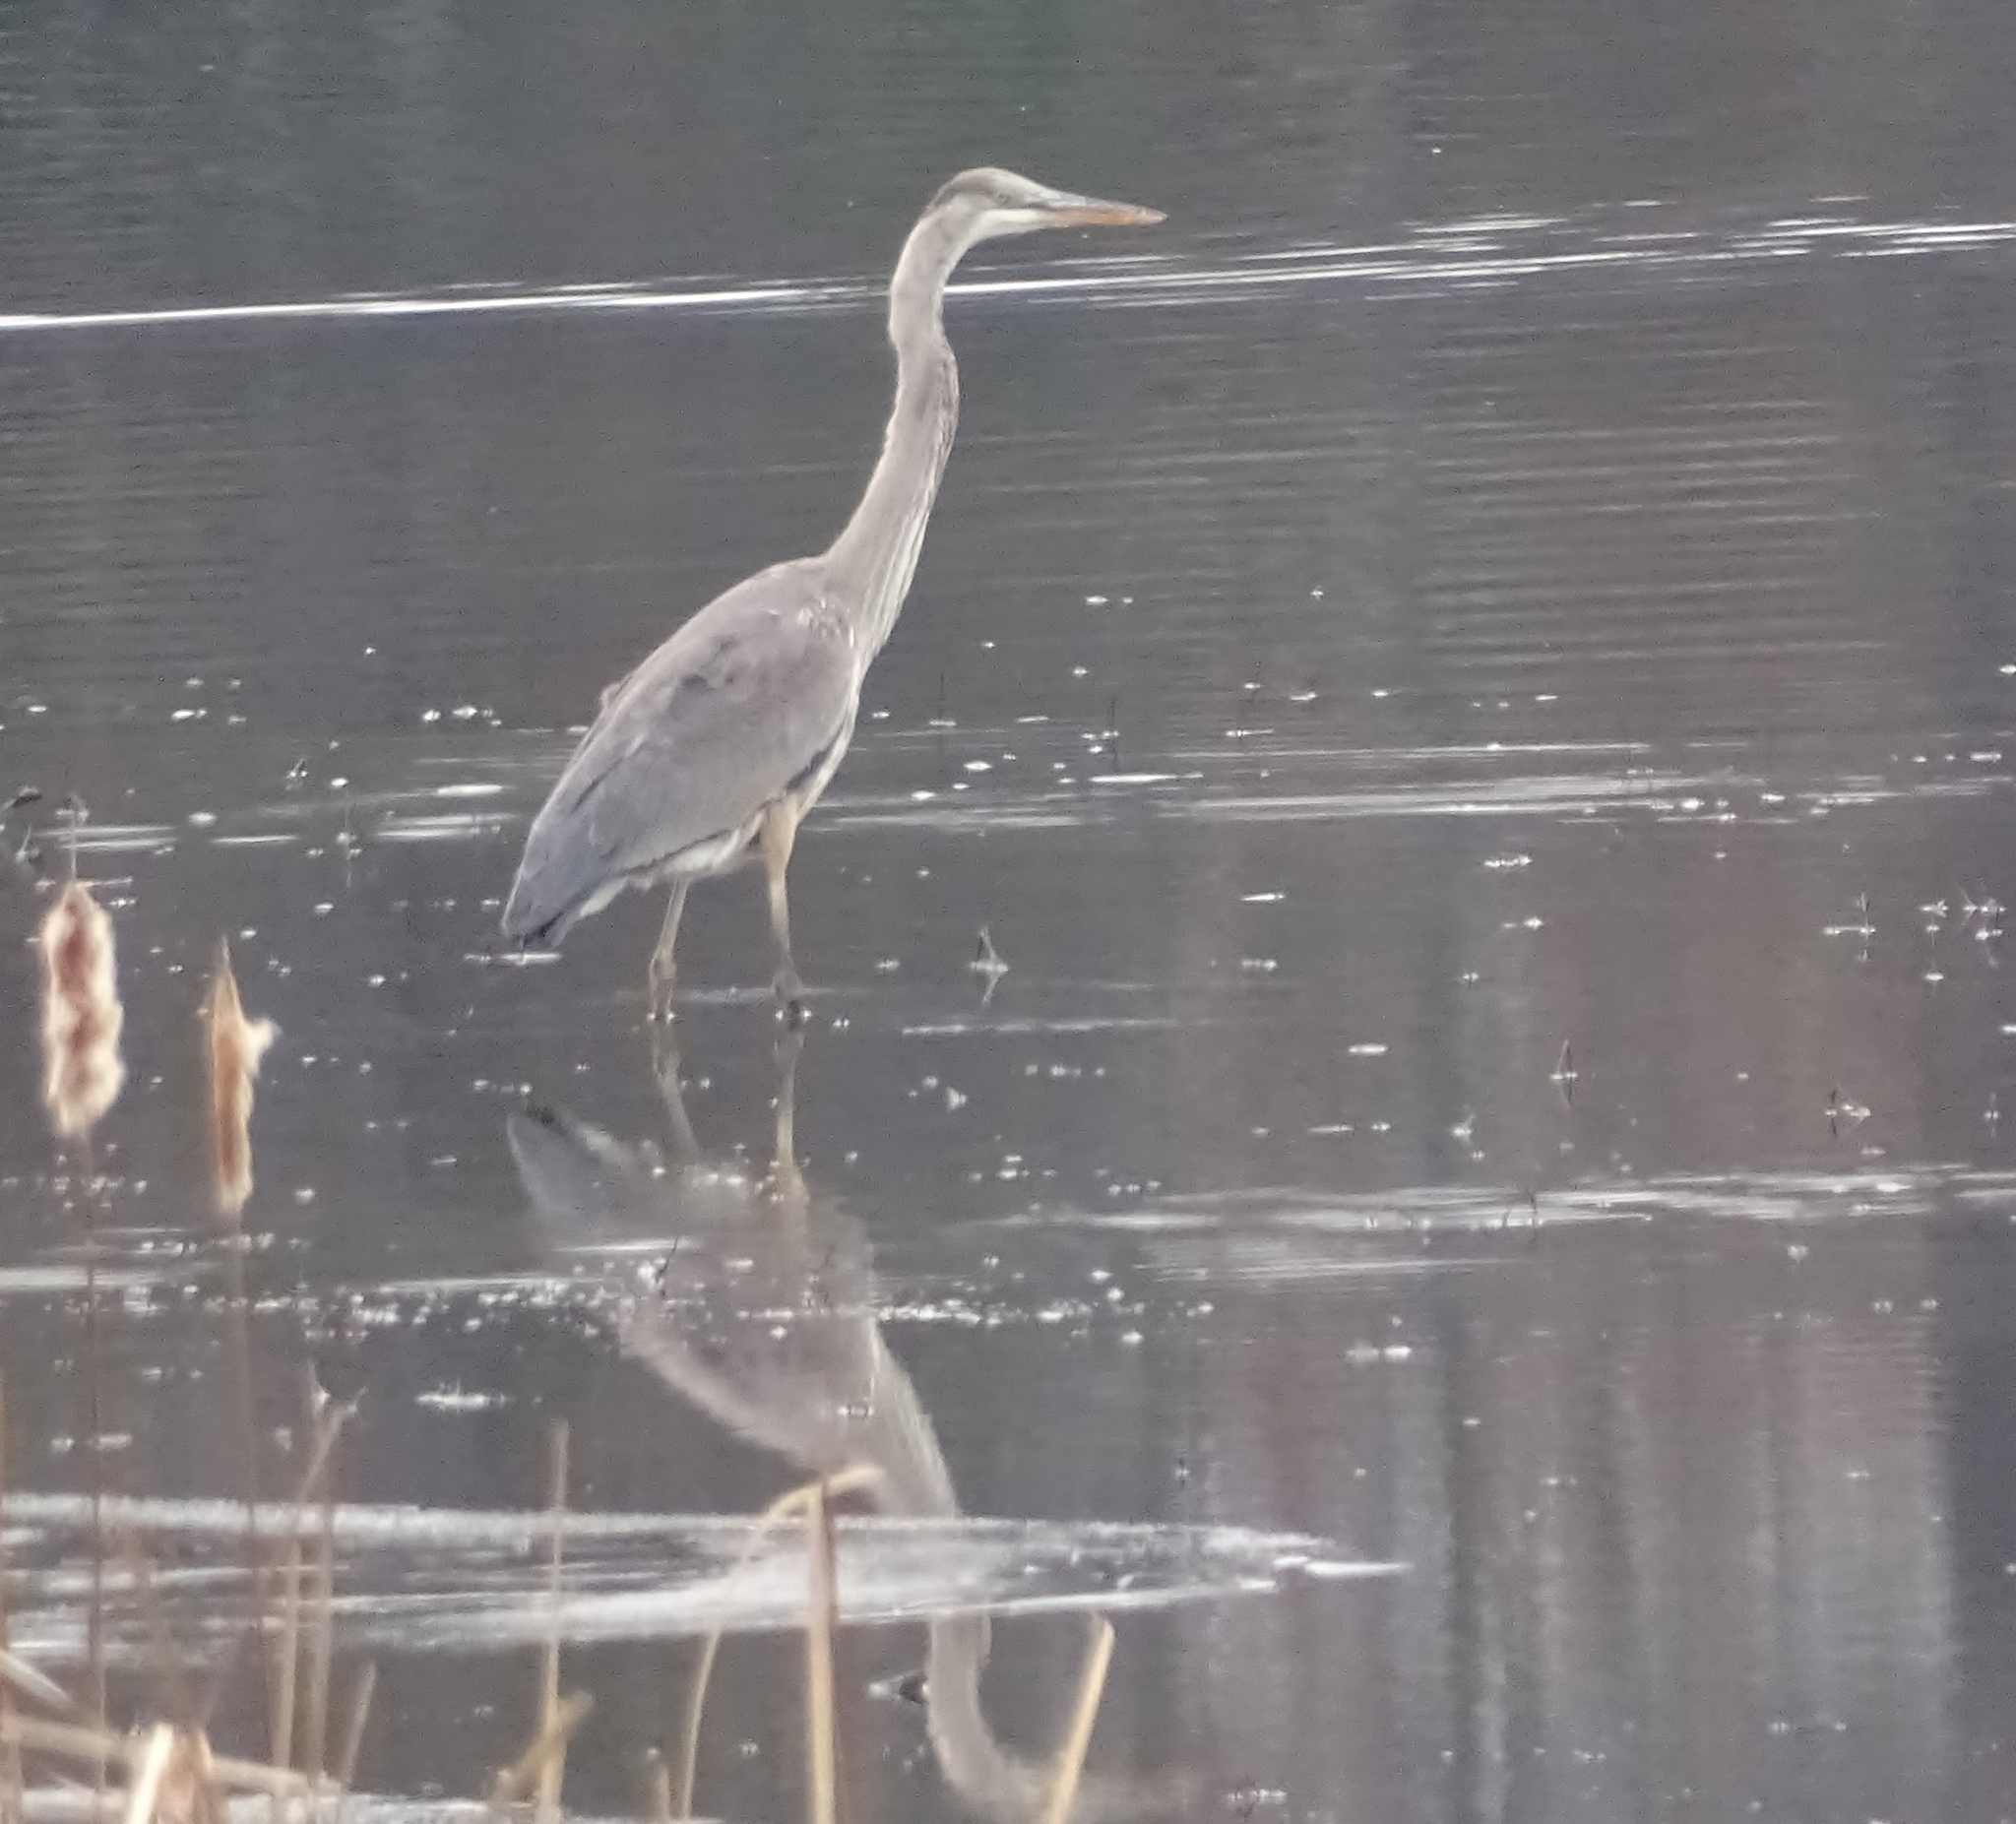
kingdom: Animalia
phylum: Chordata
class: Aves
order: Pelecaniformes
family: Ardeidae
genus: Ardea
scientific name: Ardea herodias
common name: Great blue heron
